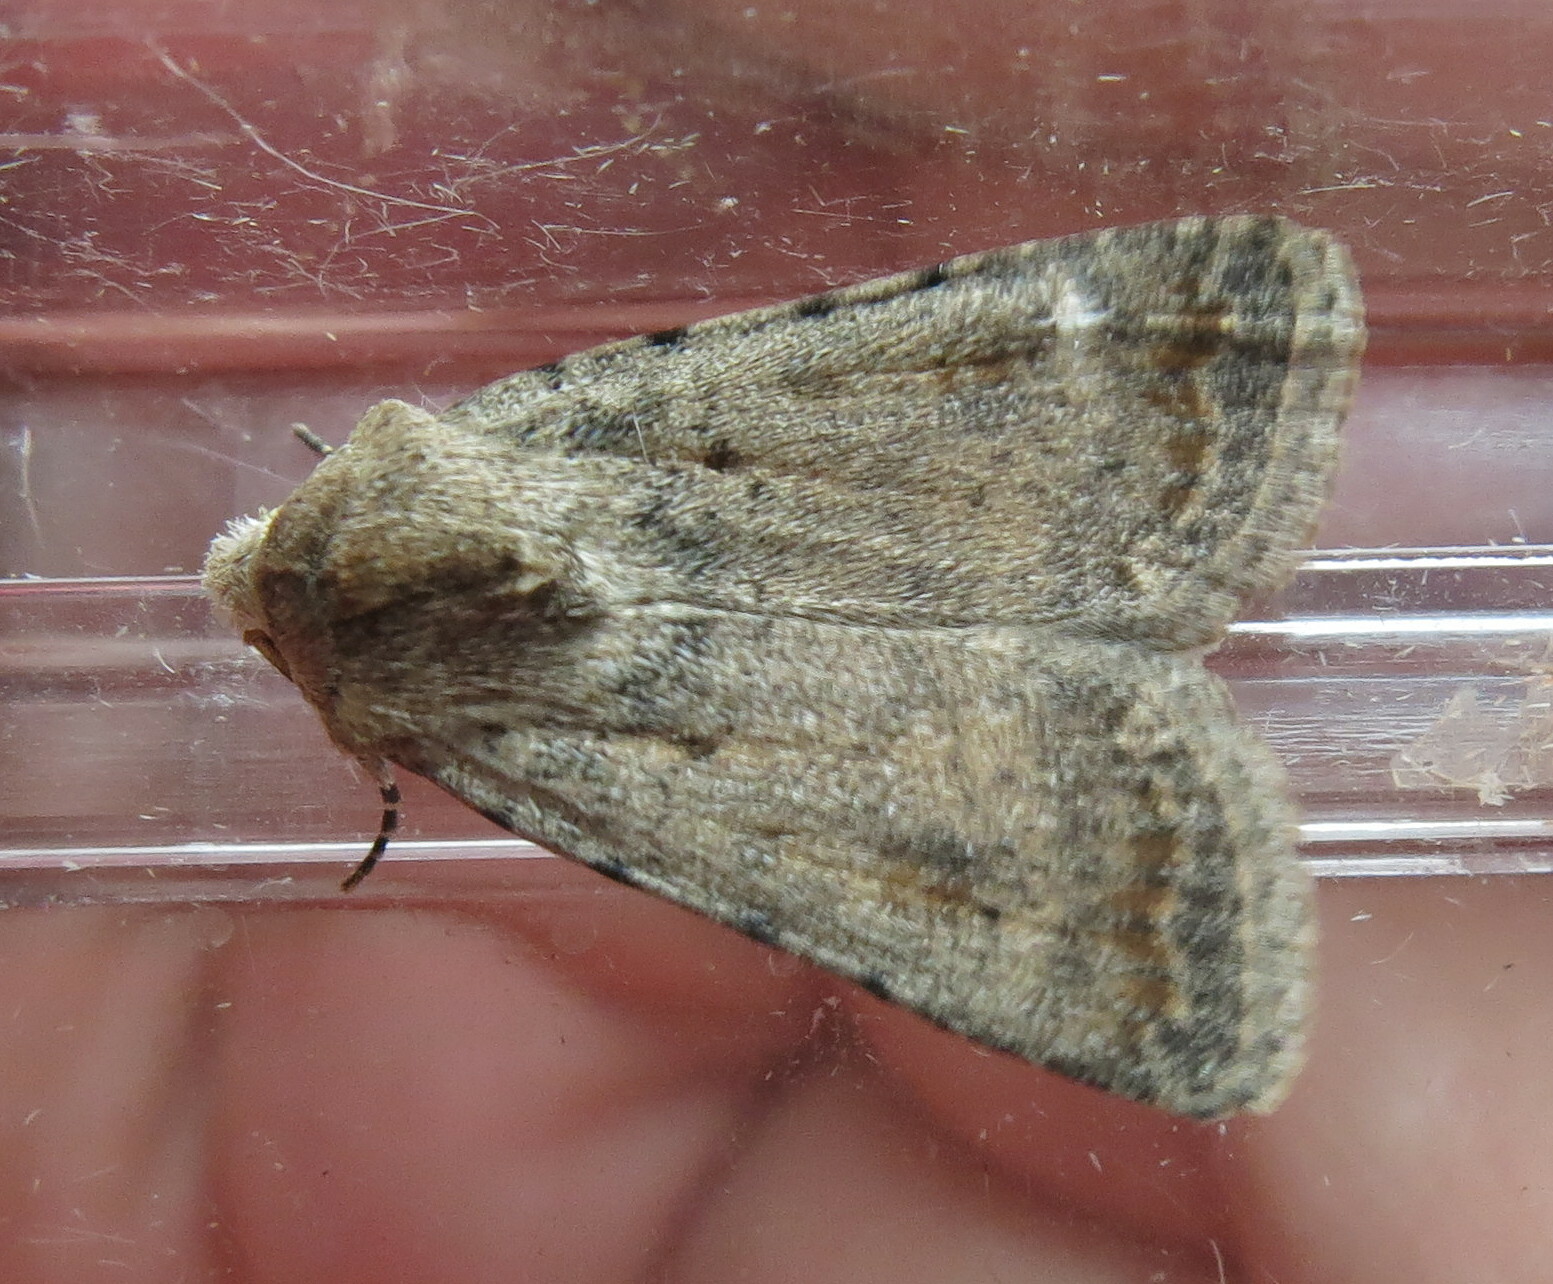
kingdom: Animalia
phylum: Arthropoda
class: Insecta
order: Lepidoptera
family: Noctuidae
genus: Caradrina
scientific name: Caradrina clavipalpis
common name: Pale mottled willow
